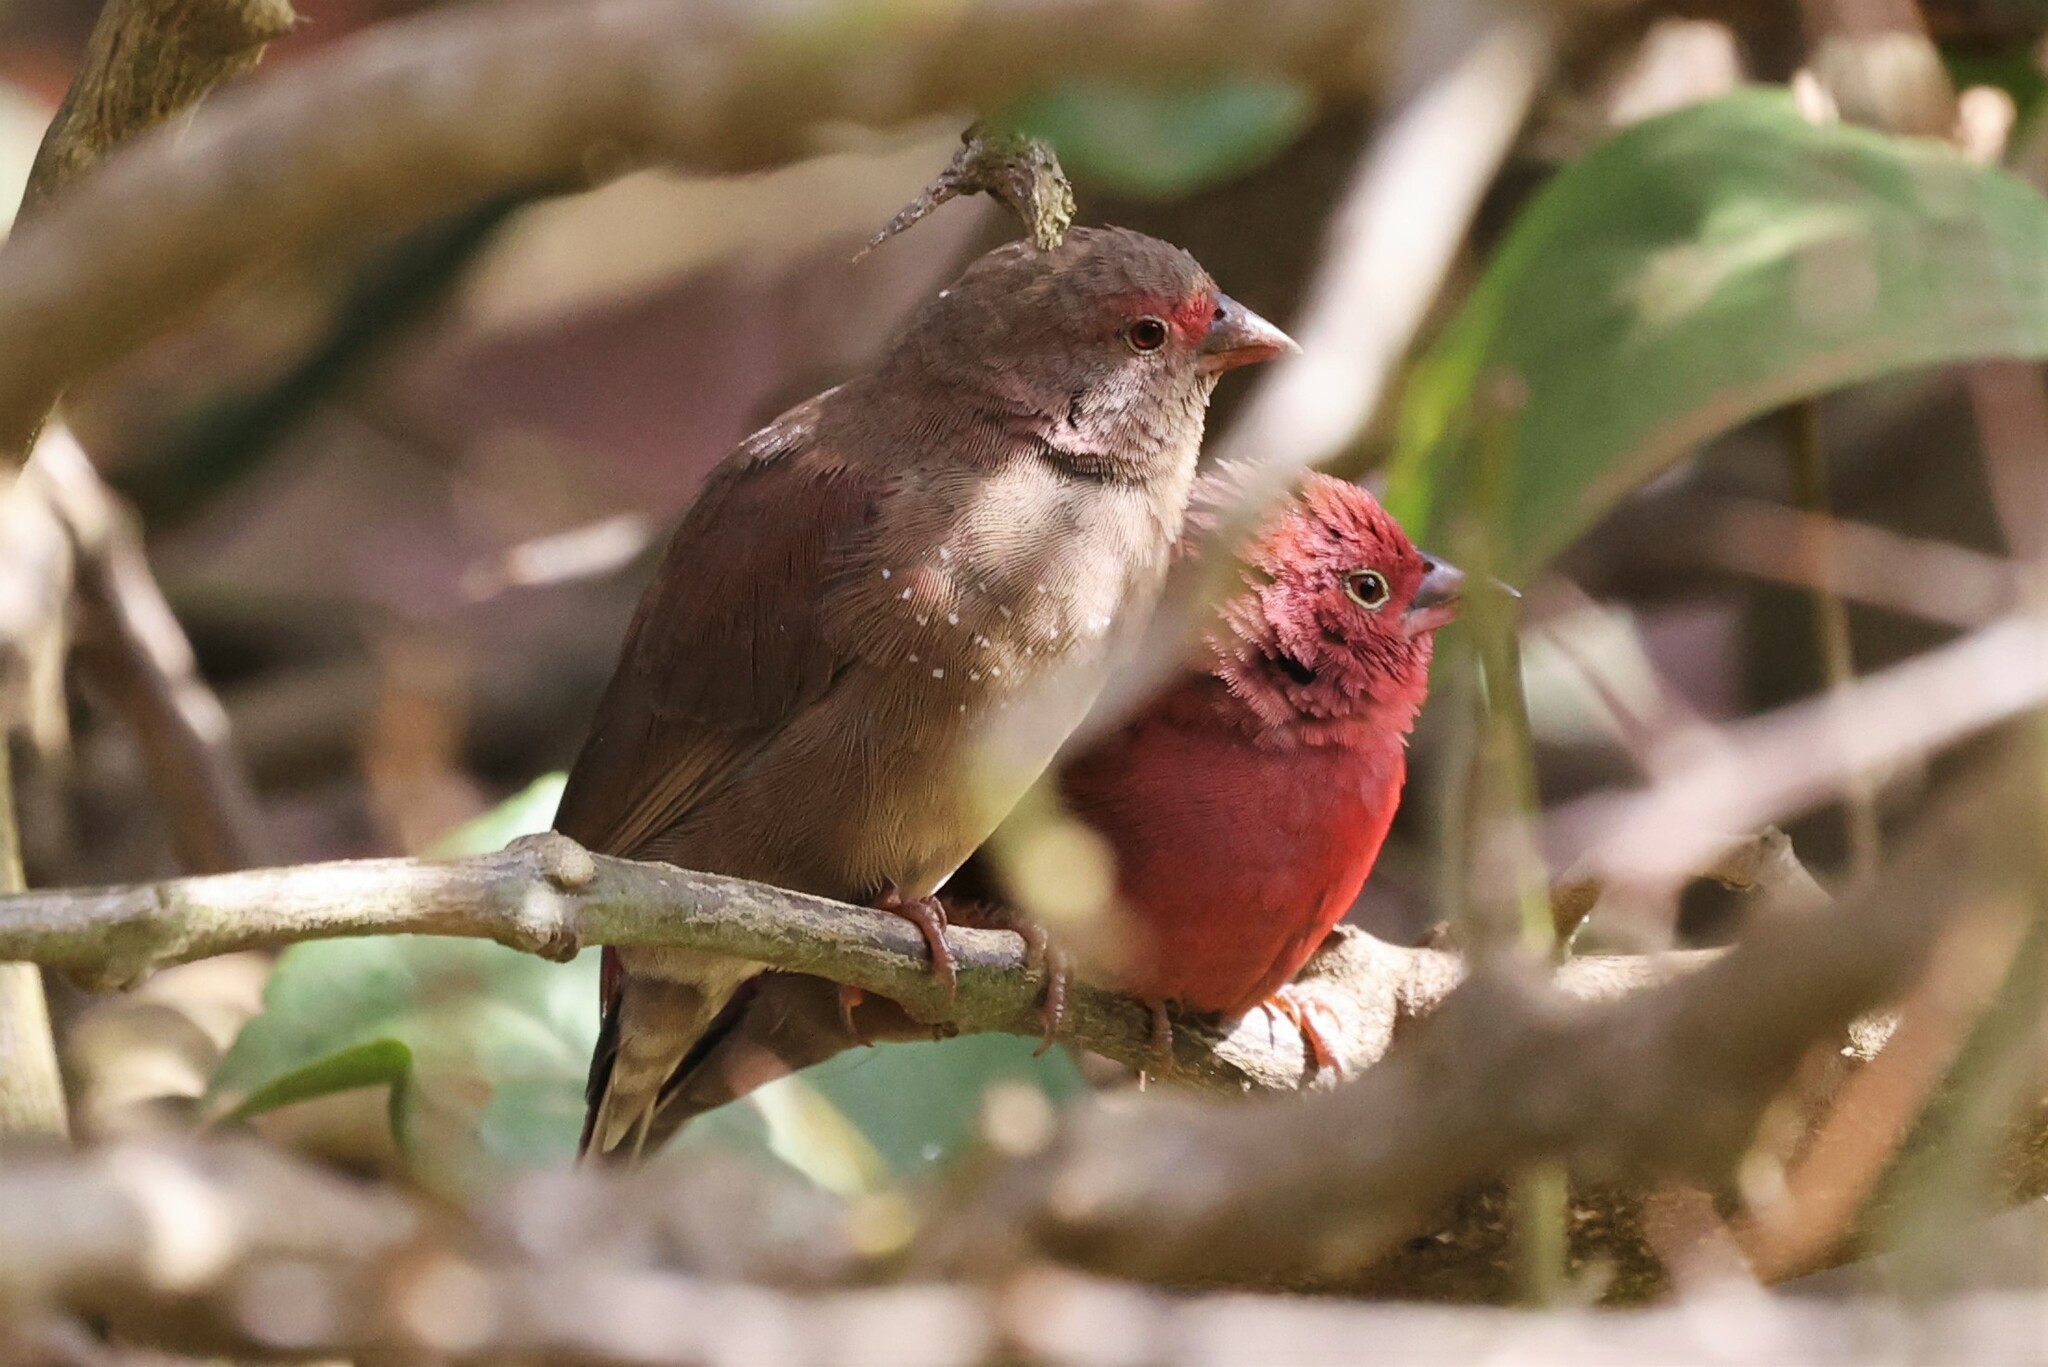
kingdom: Animalia
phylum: Chordata
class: Aves
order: Passeriformes
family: Estrildidae
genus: Lagonosticta
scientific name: Lagonosticta senegala
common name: Red-billed firefinch
